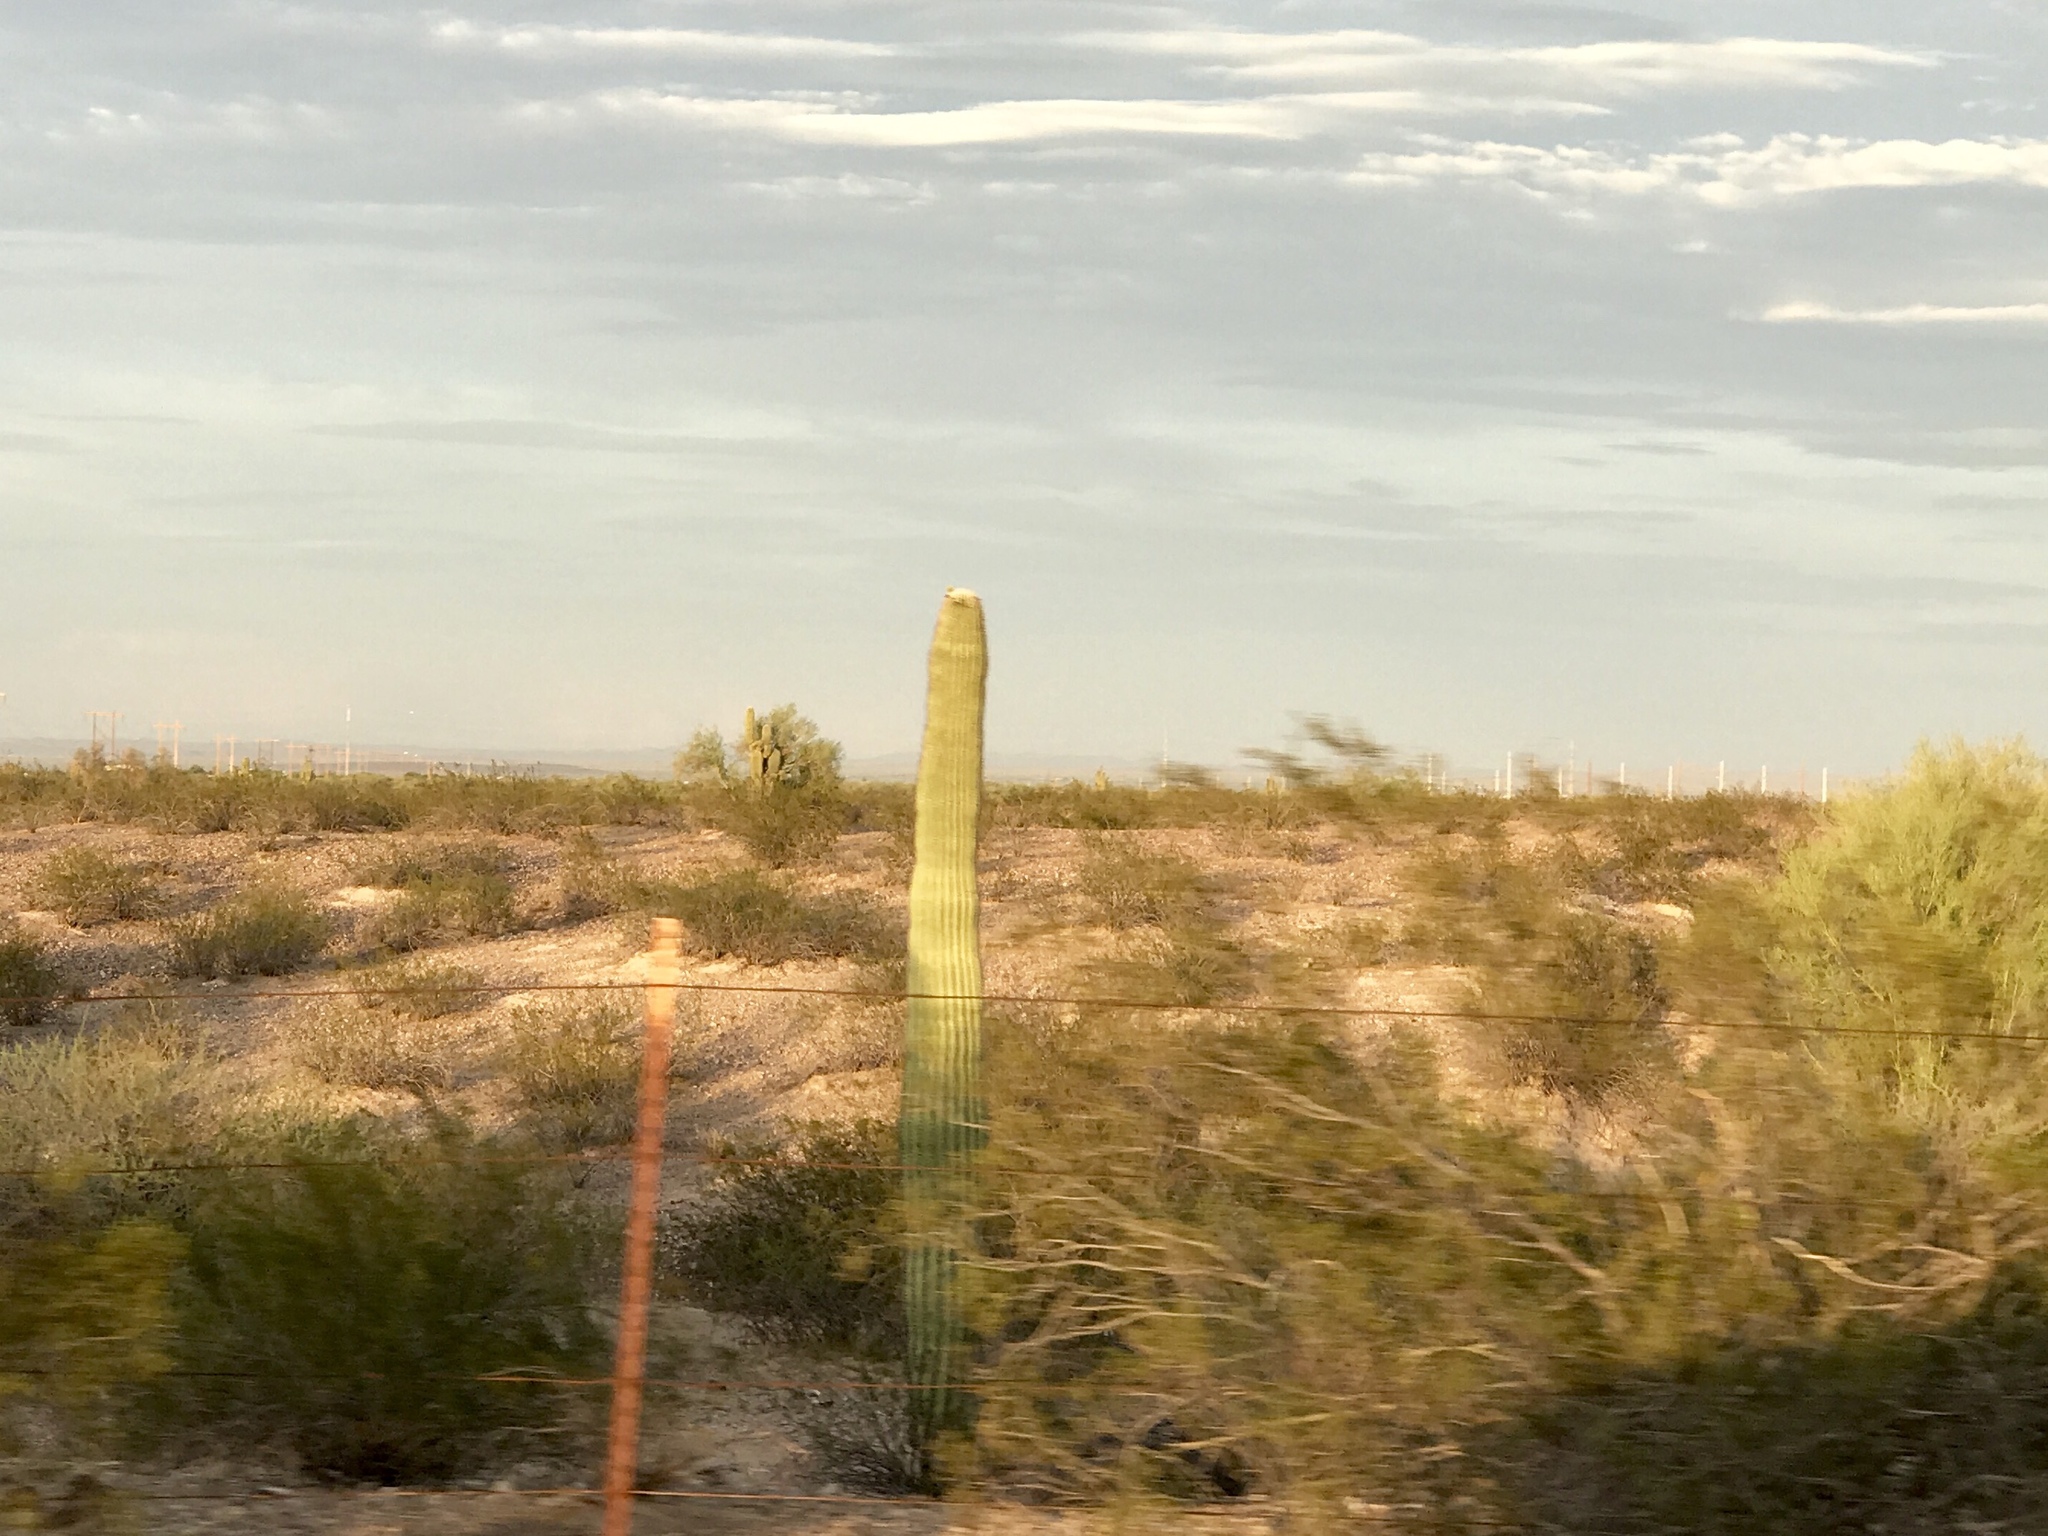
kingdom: Plantae
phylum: Tracheophyta
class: Magnoliopsida
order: Caryophyllales
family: Cactaceae
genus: Carnegiea
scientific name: Carnegiea gigantea
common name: Saguaro
